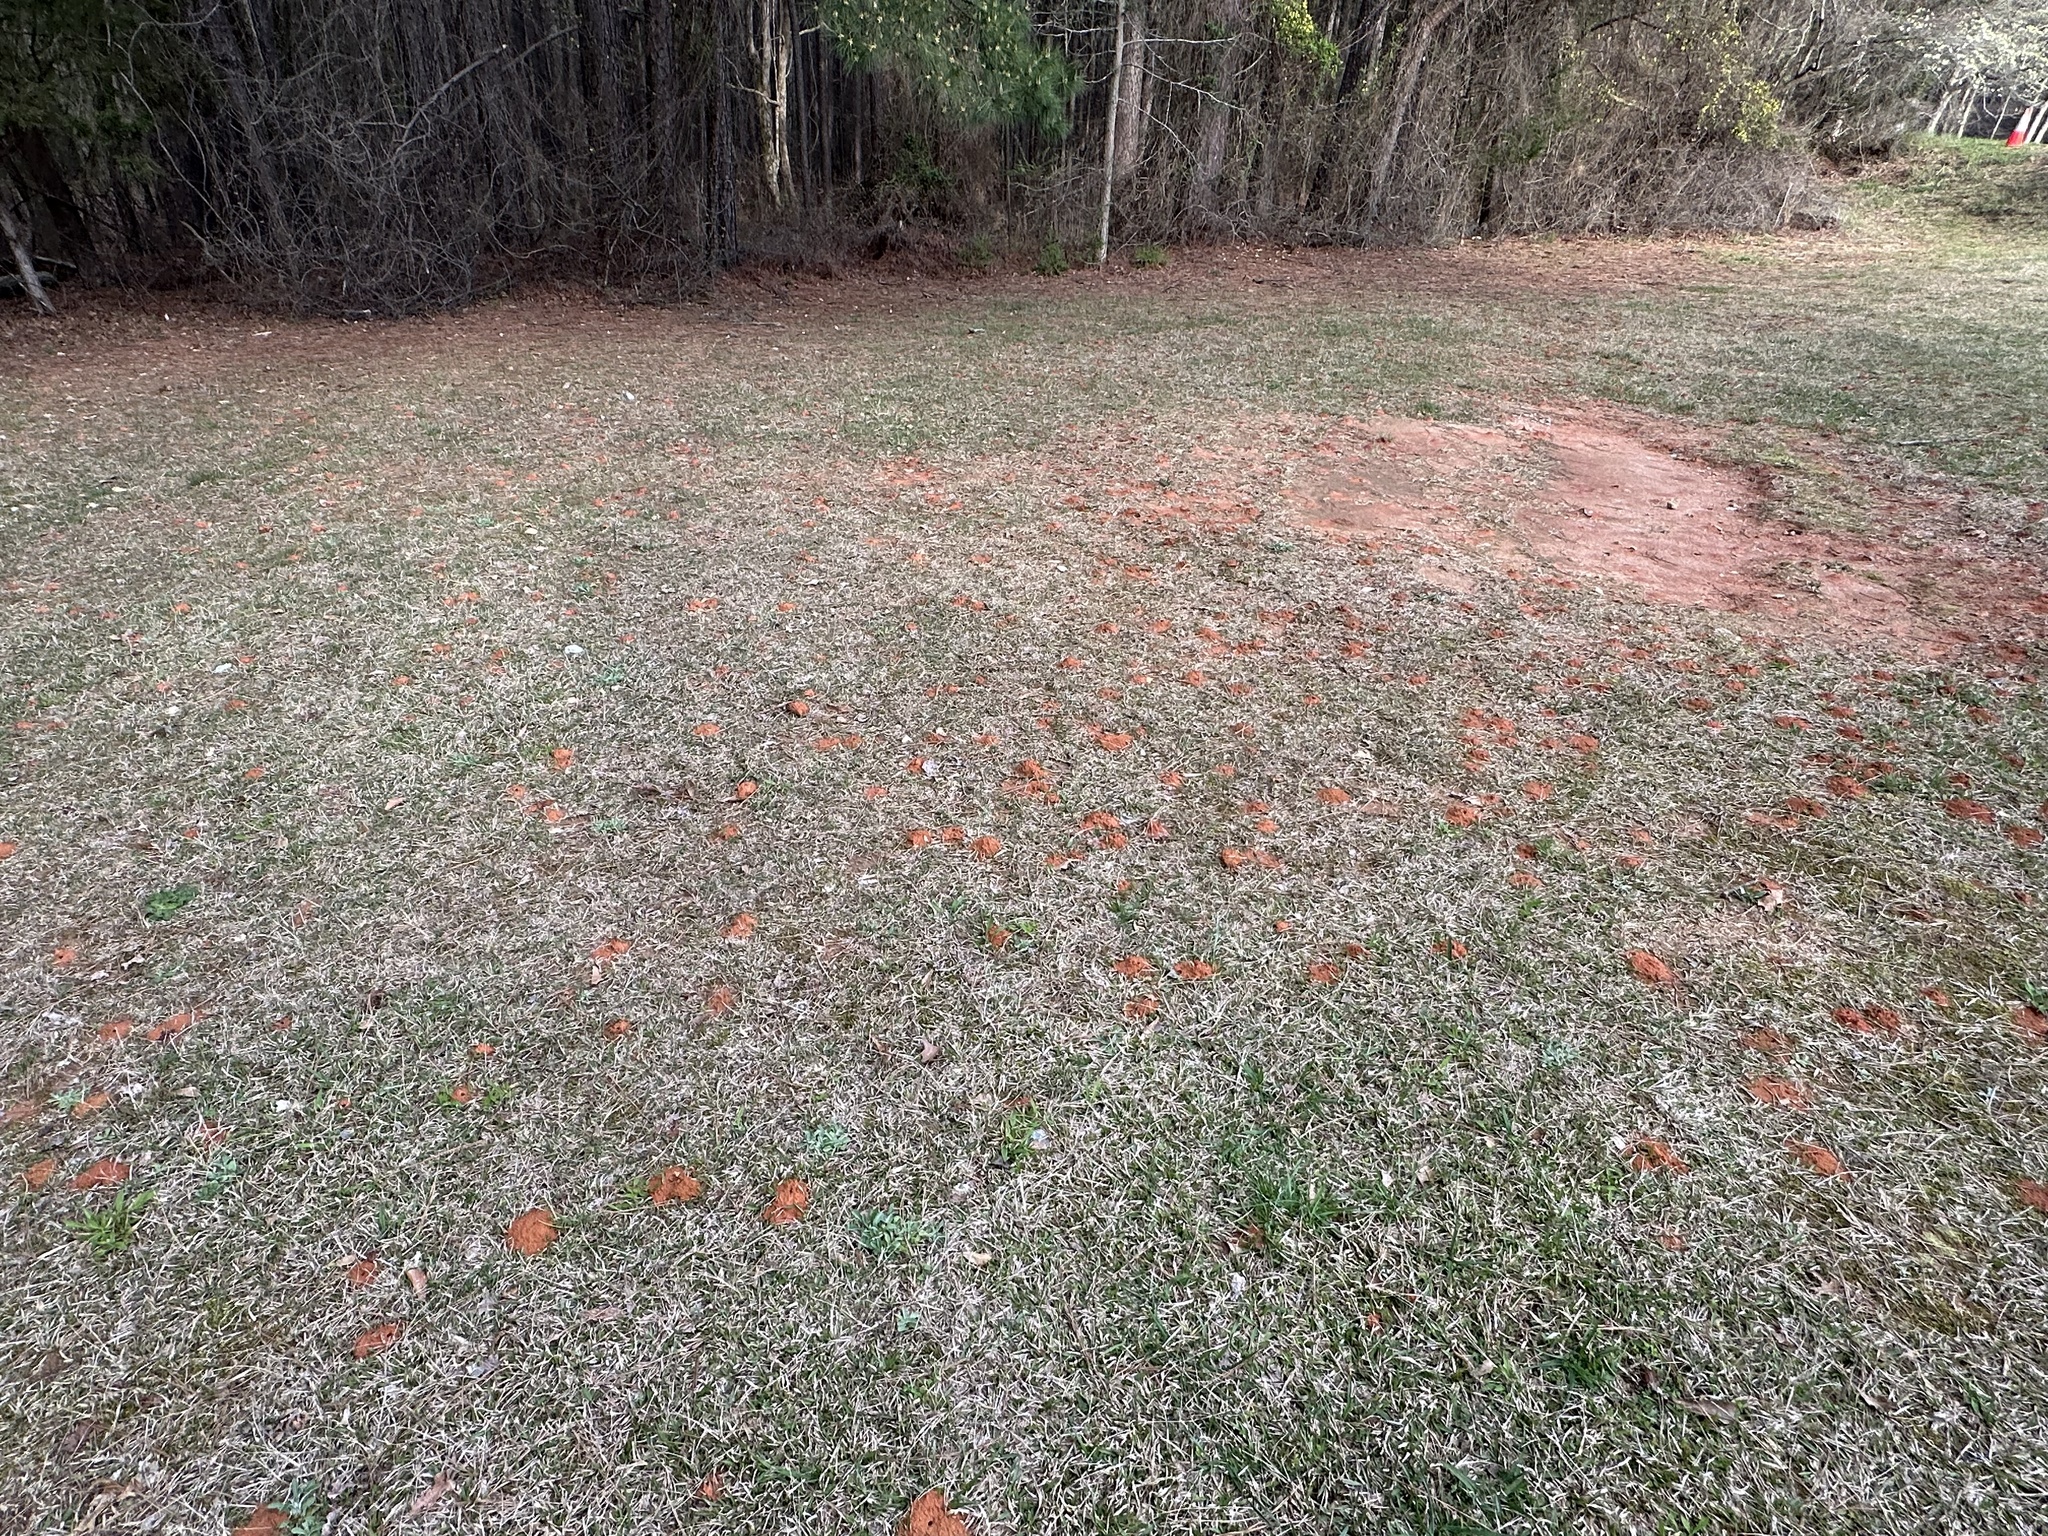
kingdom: Animalia
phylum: Arthropoda
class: Insecta
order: Hymenoptera
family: Andrenidae
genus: Andrena
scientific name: Andrena barbara
